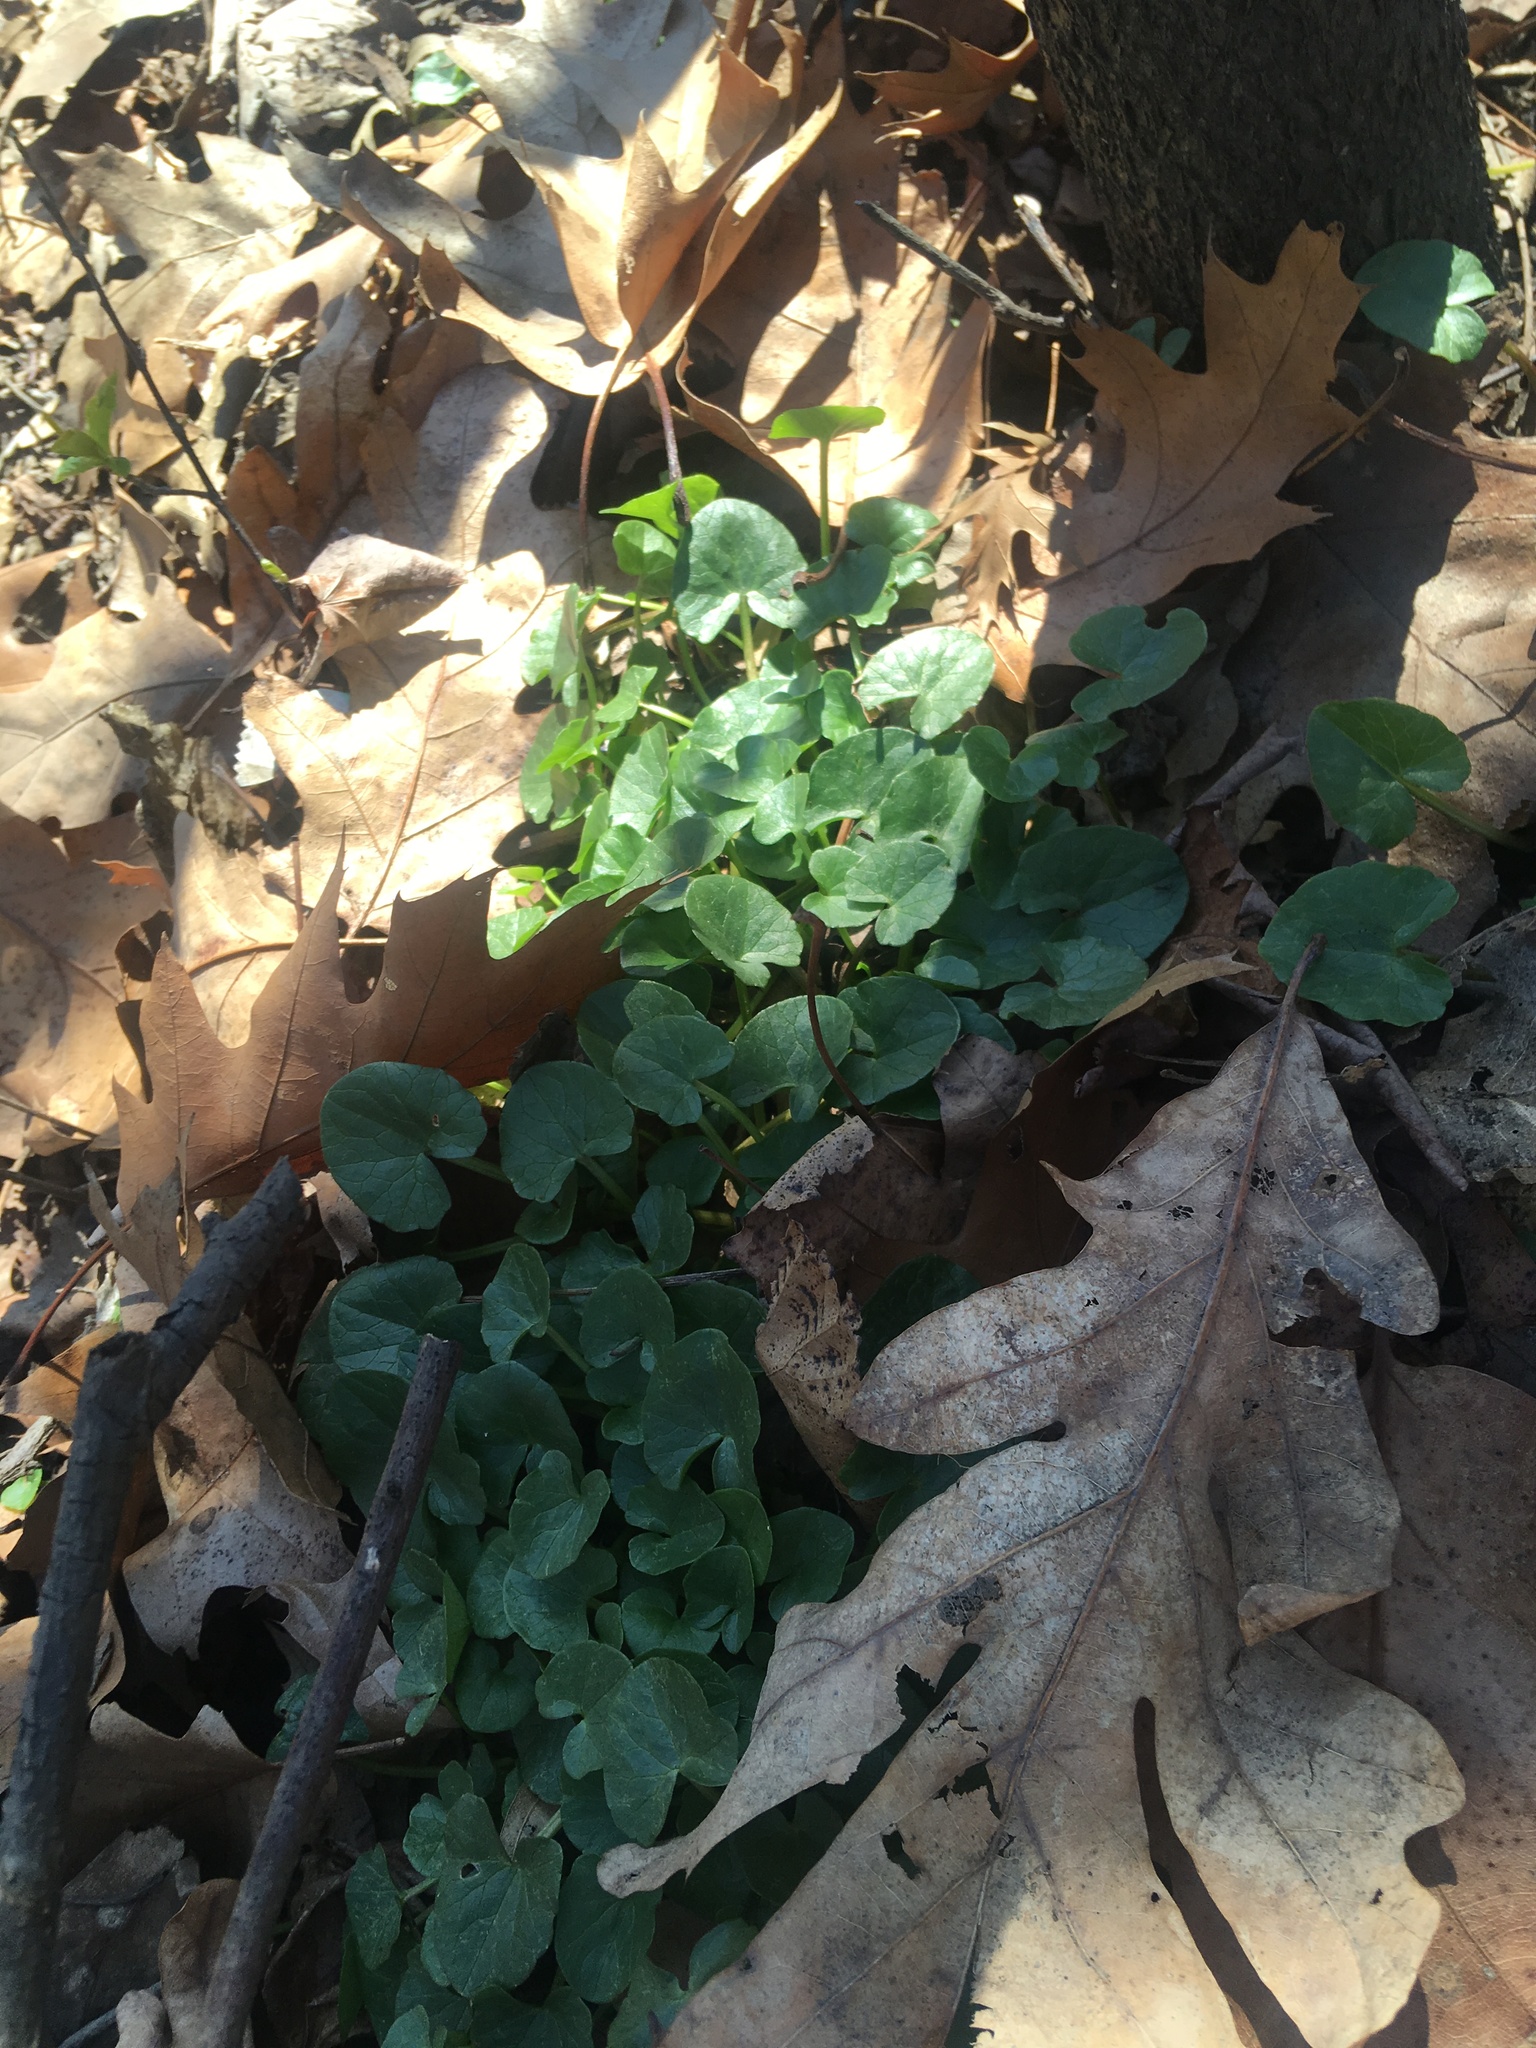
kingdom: Plantae
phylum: Tracheophyta
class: Magnoliopsida
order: Ranunculales
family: Ranunculaceae
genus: Ficaria
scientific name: Ficaria verna
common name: Lesser celandine
